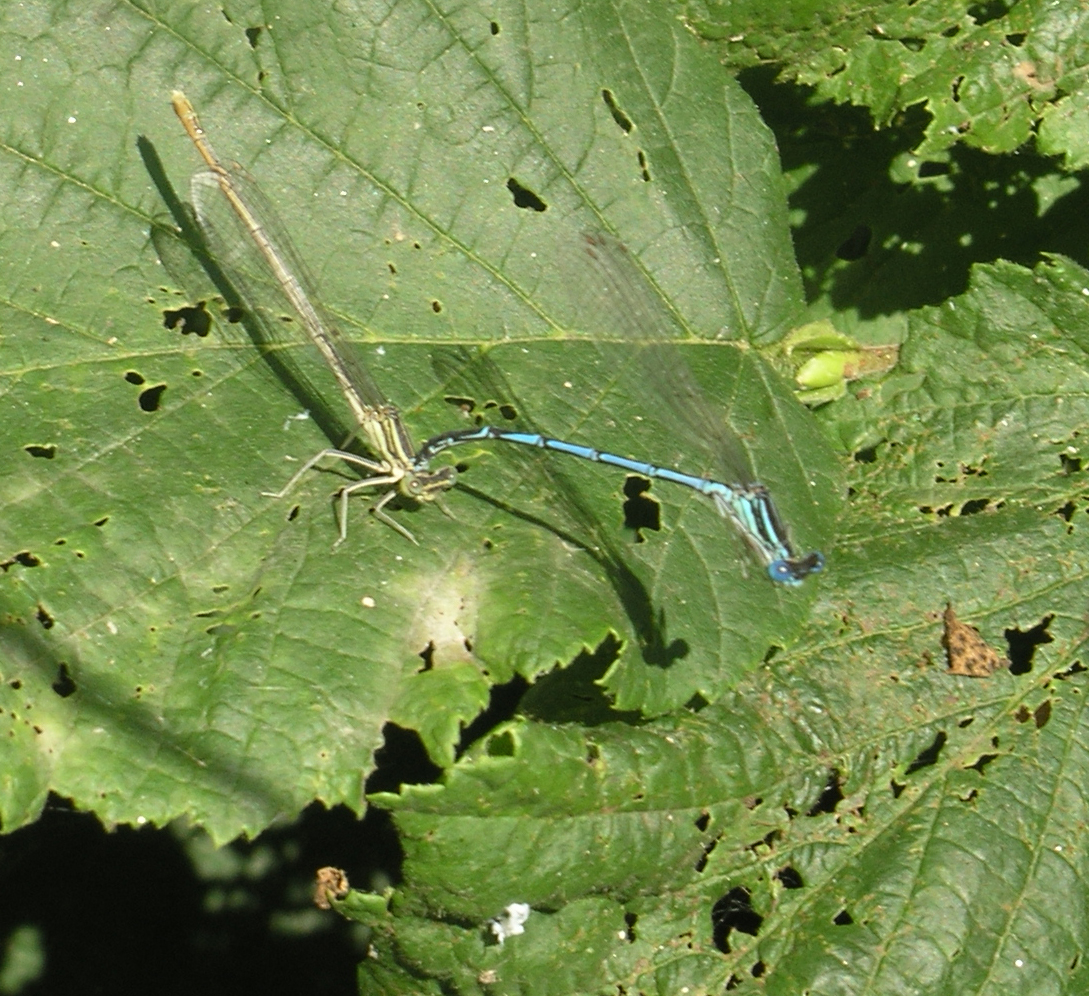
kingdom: Animalia
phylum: Arthropoda
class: Insecta
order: Odonata
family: Platycnemididae
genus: Platycnemis
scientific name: Platycnemis pennipes
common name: White-legged damselfly
